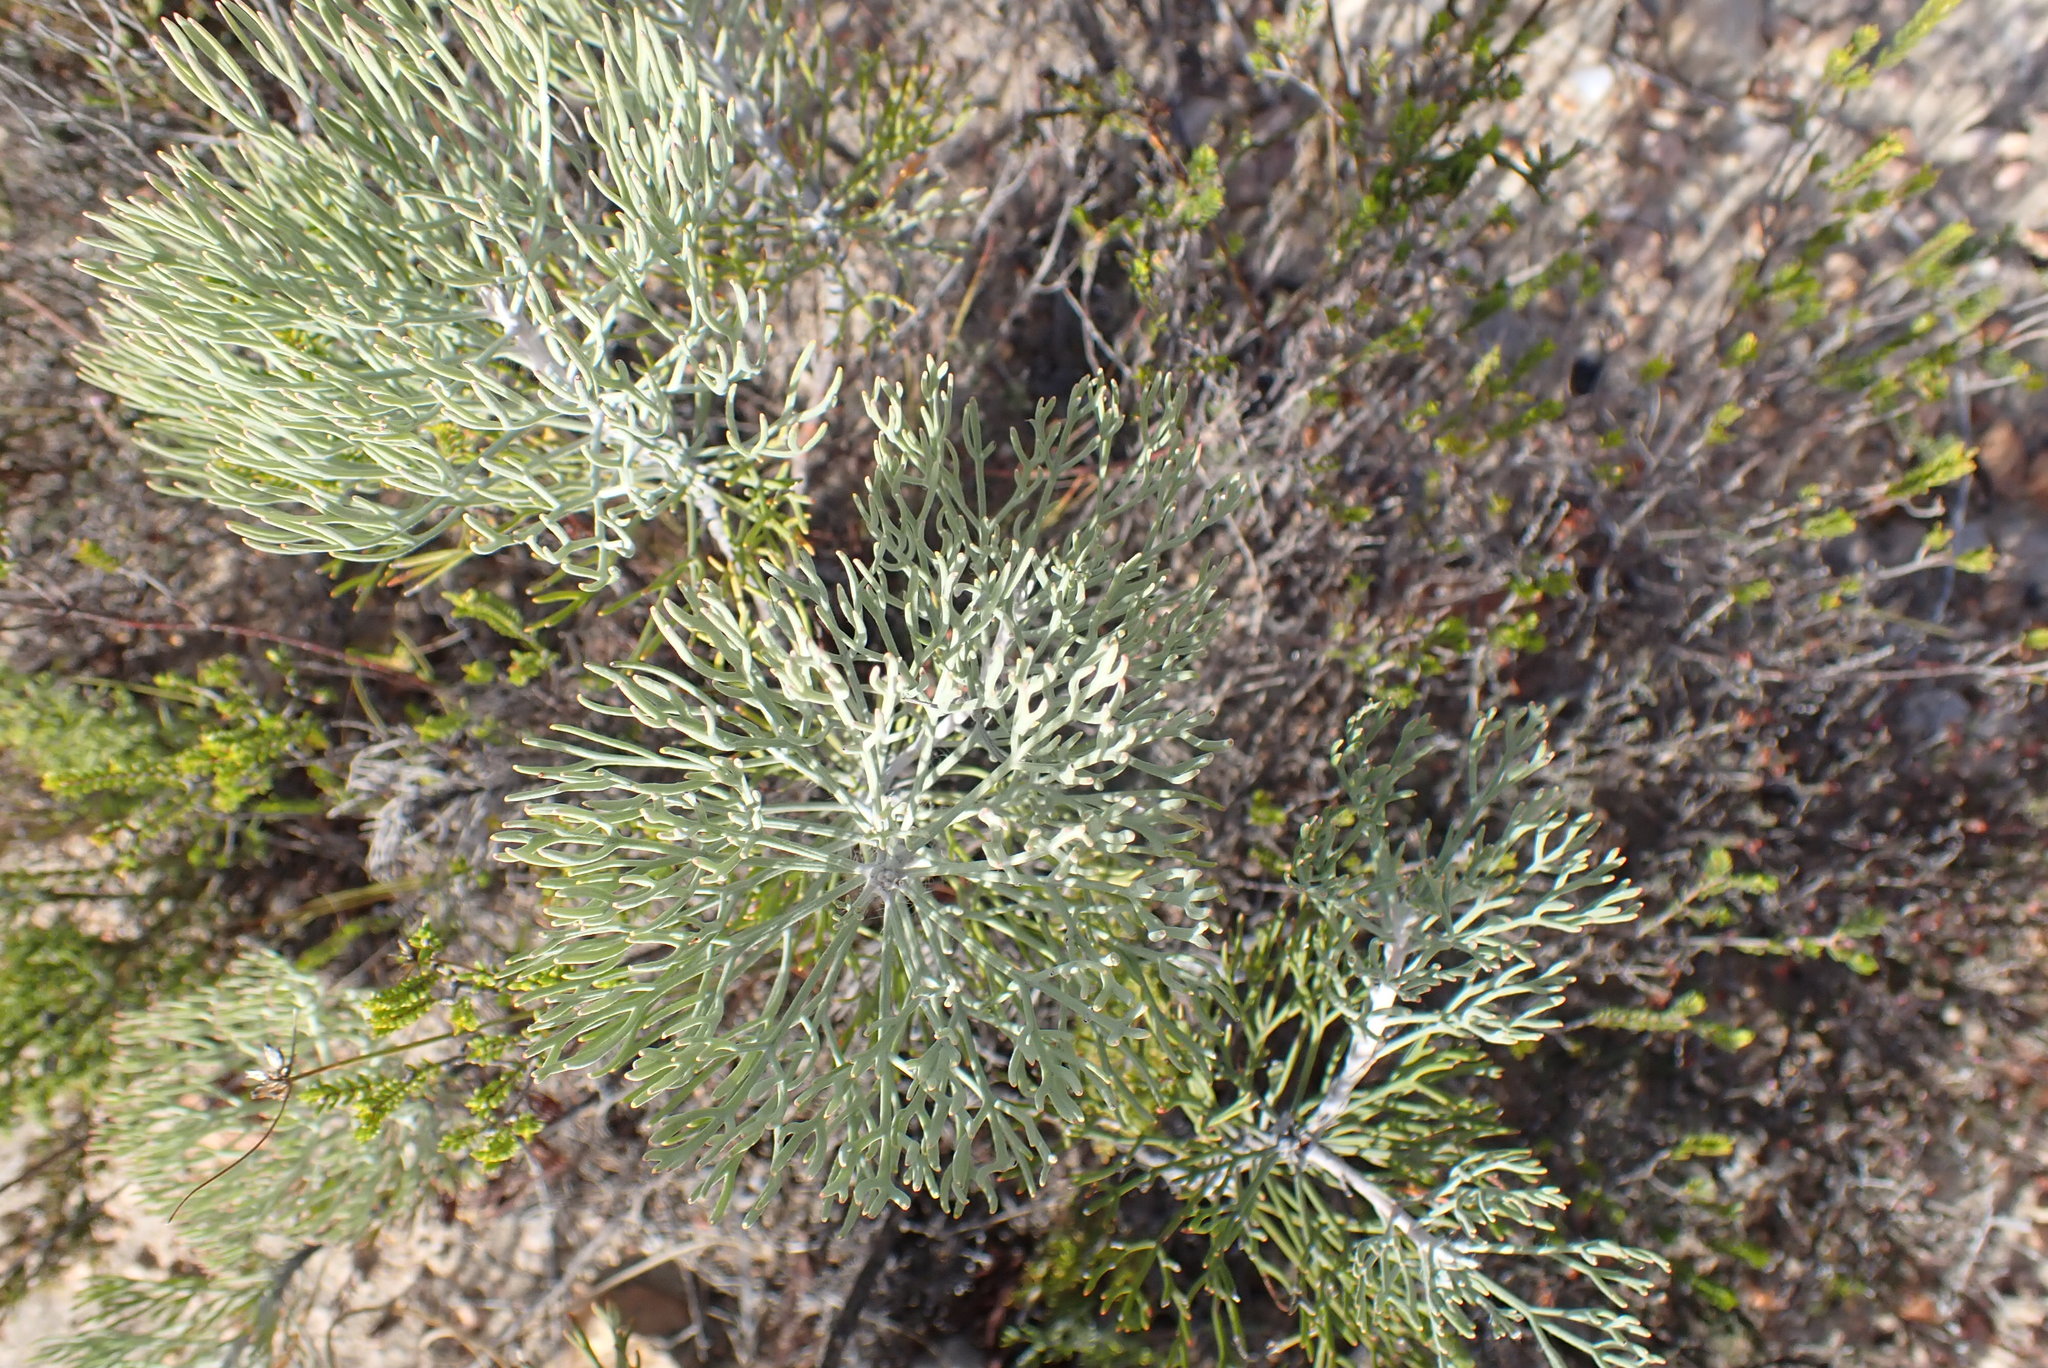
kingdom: Plantae
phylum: Tracheophyta
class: Magnoliopsida
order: Proteales
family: Proteaceae
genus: Paranomus
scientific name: Paranomus dispersus
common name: Long-head sceptre
